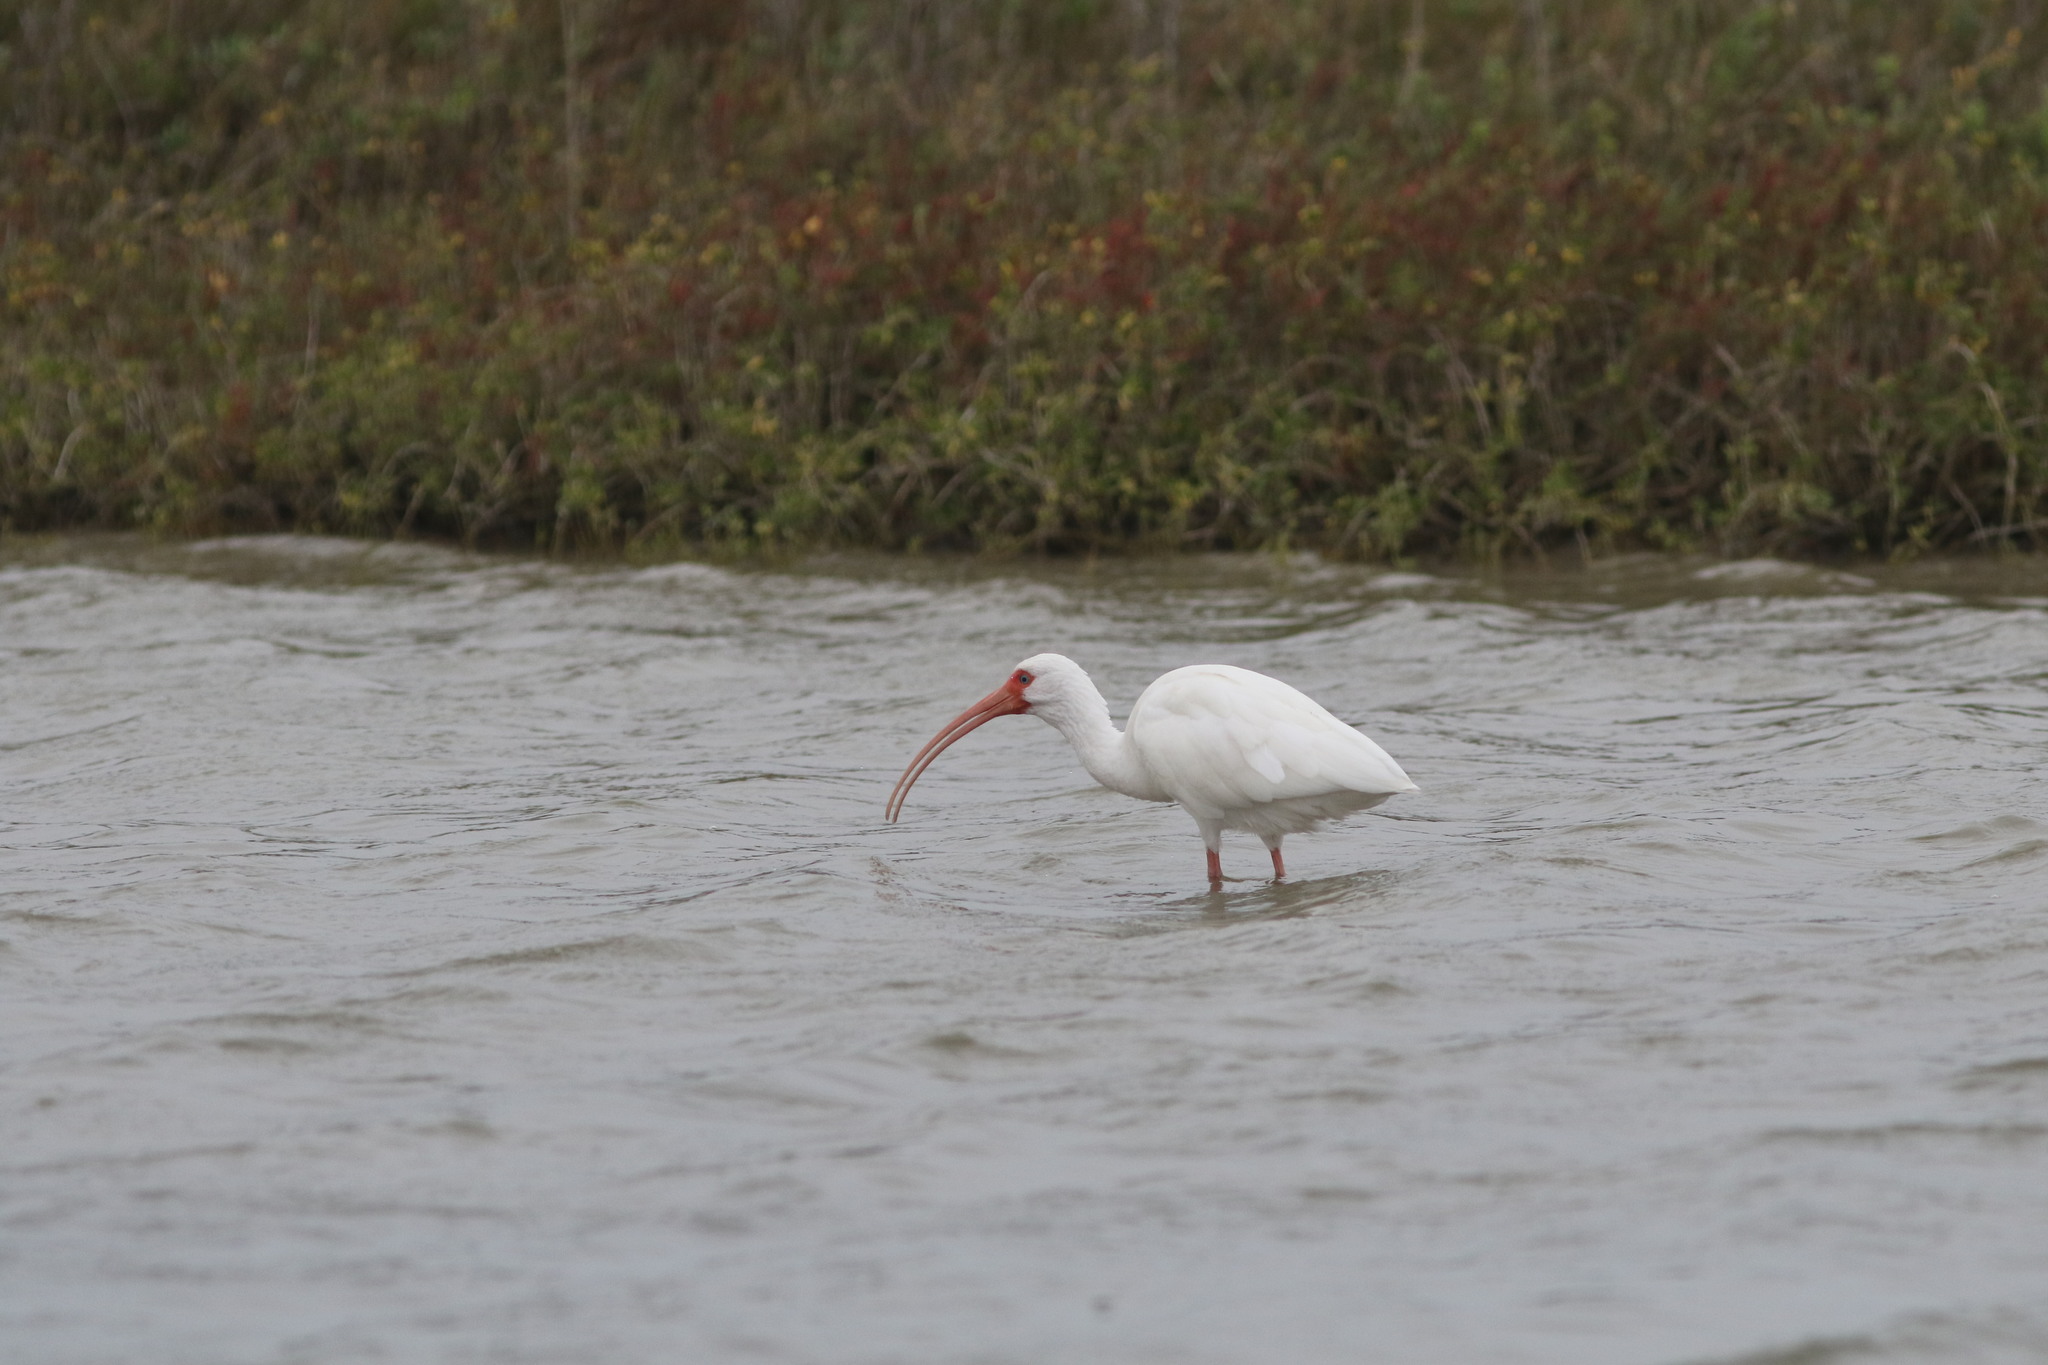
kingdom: Animalia
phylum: Chordata
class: Aves
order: Pelecaniformes
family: Threskiornithidae
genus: Eudocimus
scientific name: Eudocimus albus
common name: White ibis
